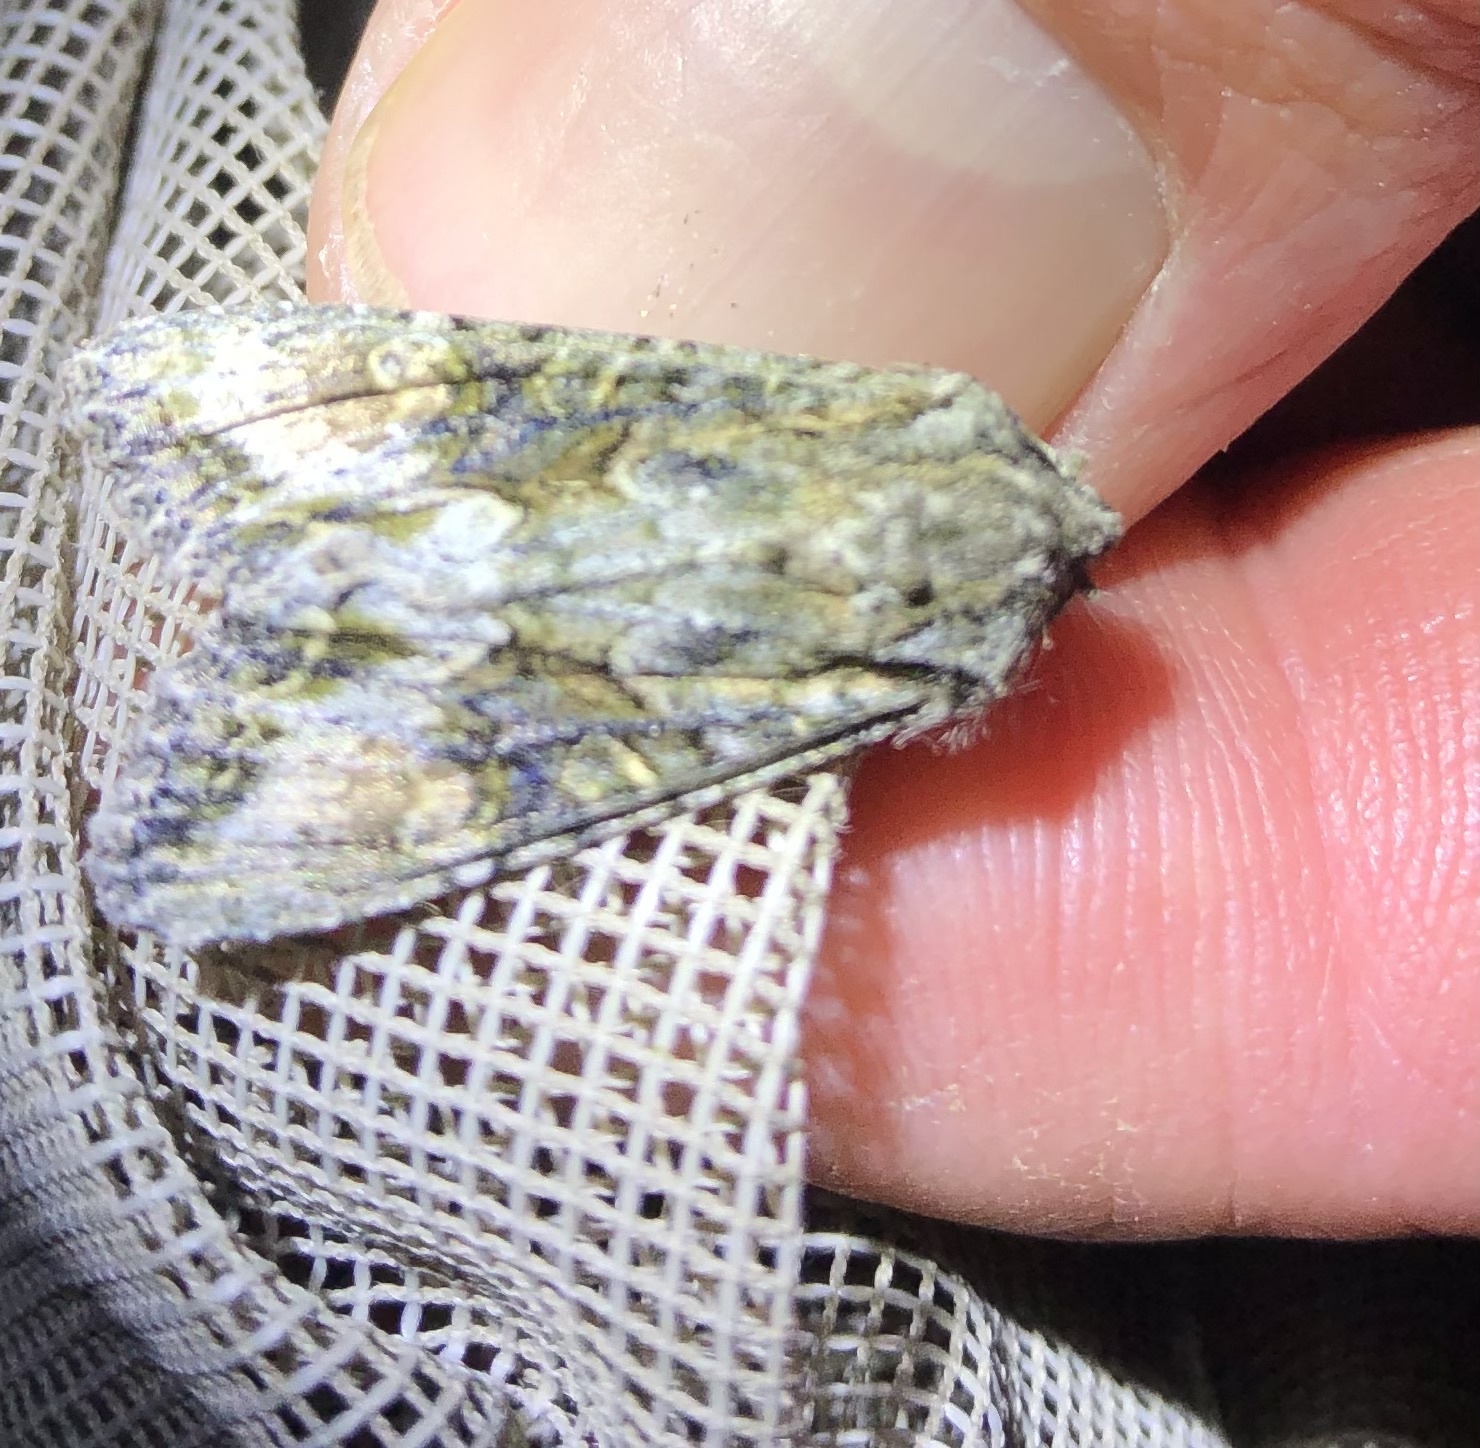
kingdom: Animalia
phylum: Arthropoda
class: Insecta
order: Lepidoptera
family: Noctuidae
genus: Ichneutica
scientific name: Ichneutica mutans
